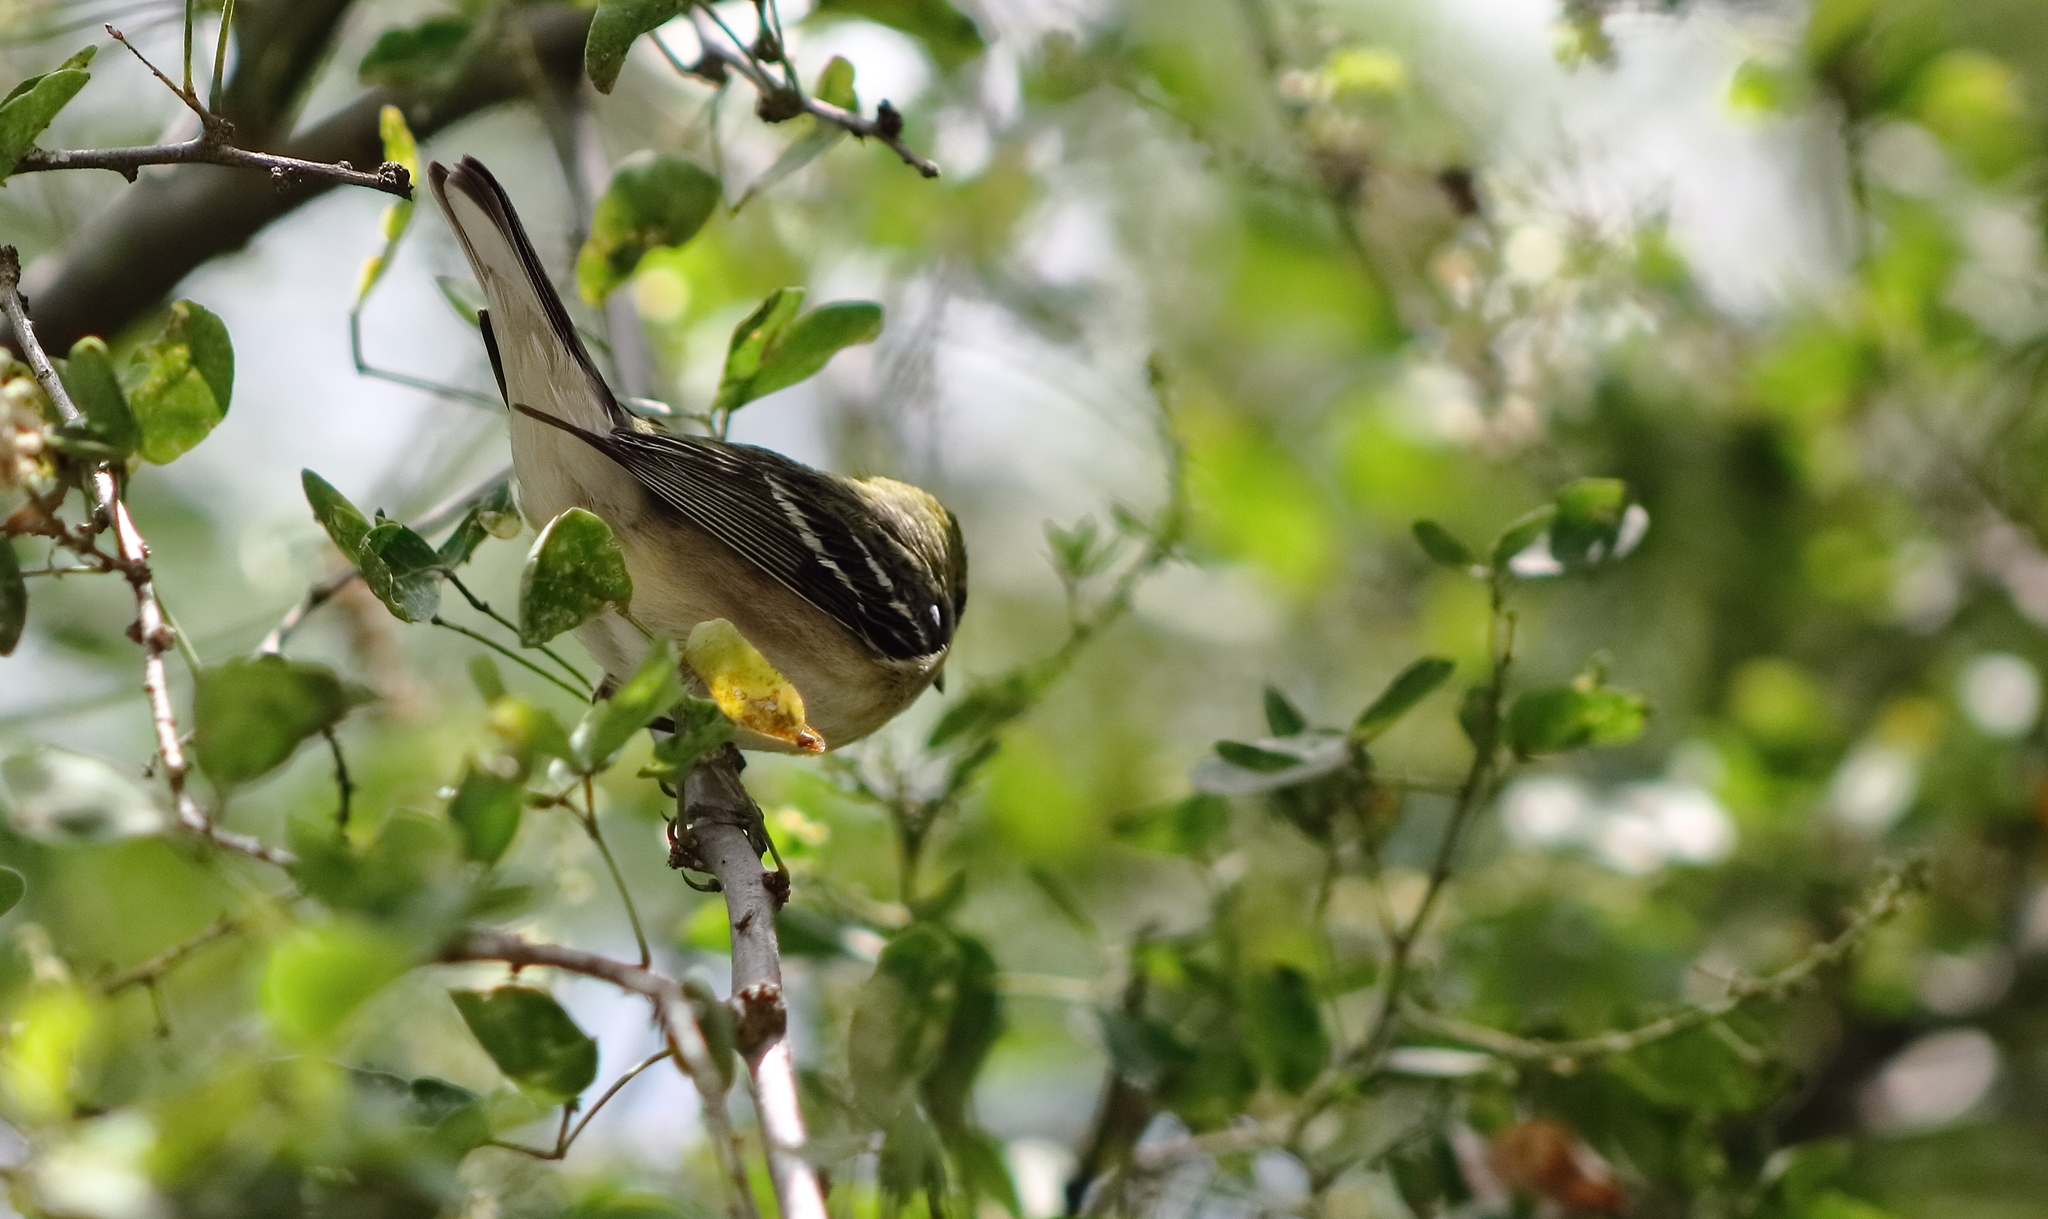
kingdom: Animalia
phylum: Chordata
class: Aves
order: Passeriformes
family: Parulidae
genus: Setophaga
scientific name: Setophaga castanea
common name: Bay-breasted warbler
